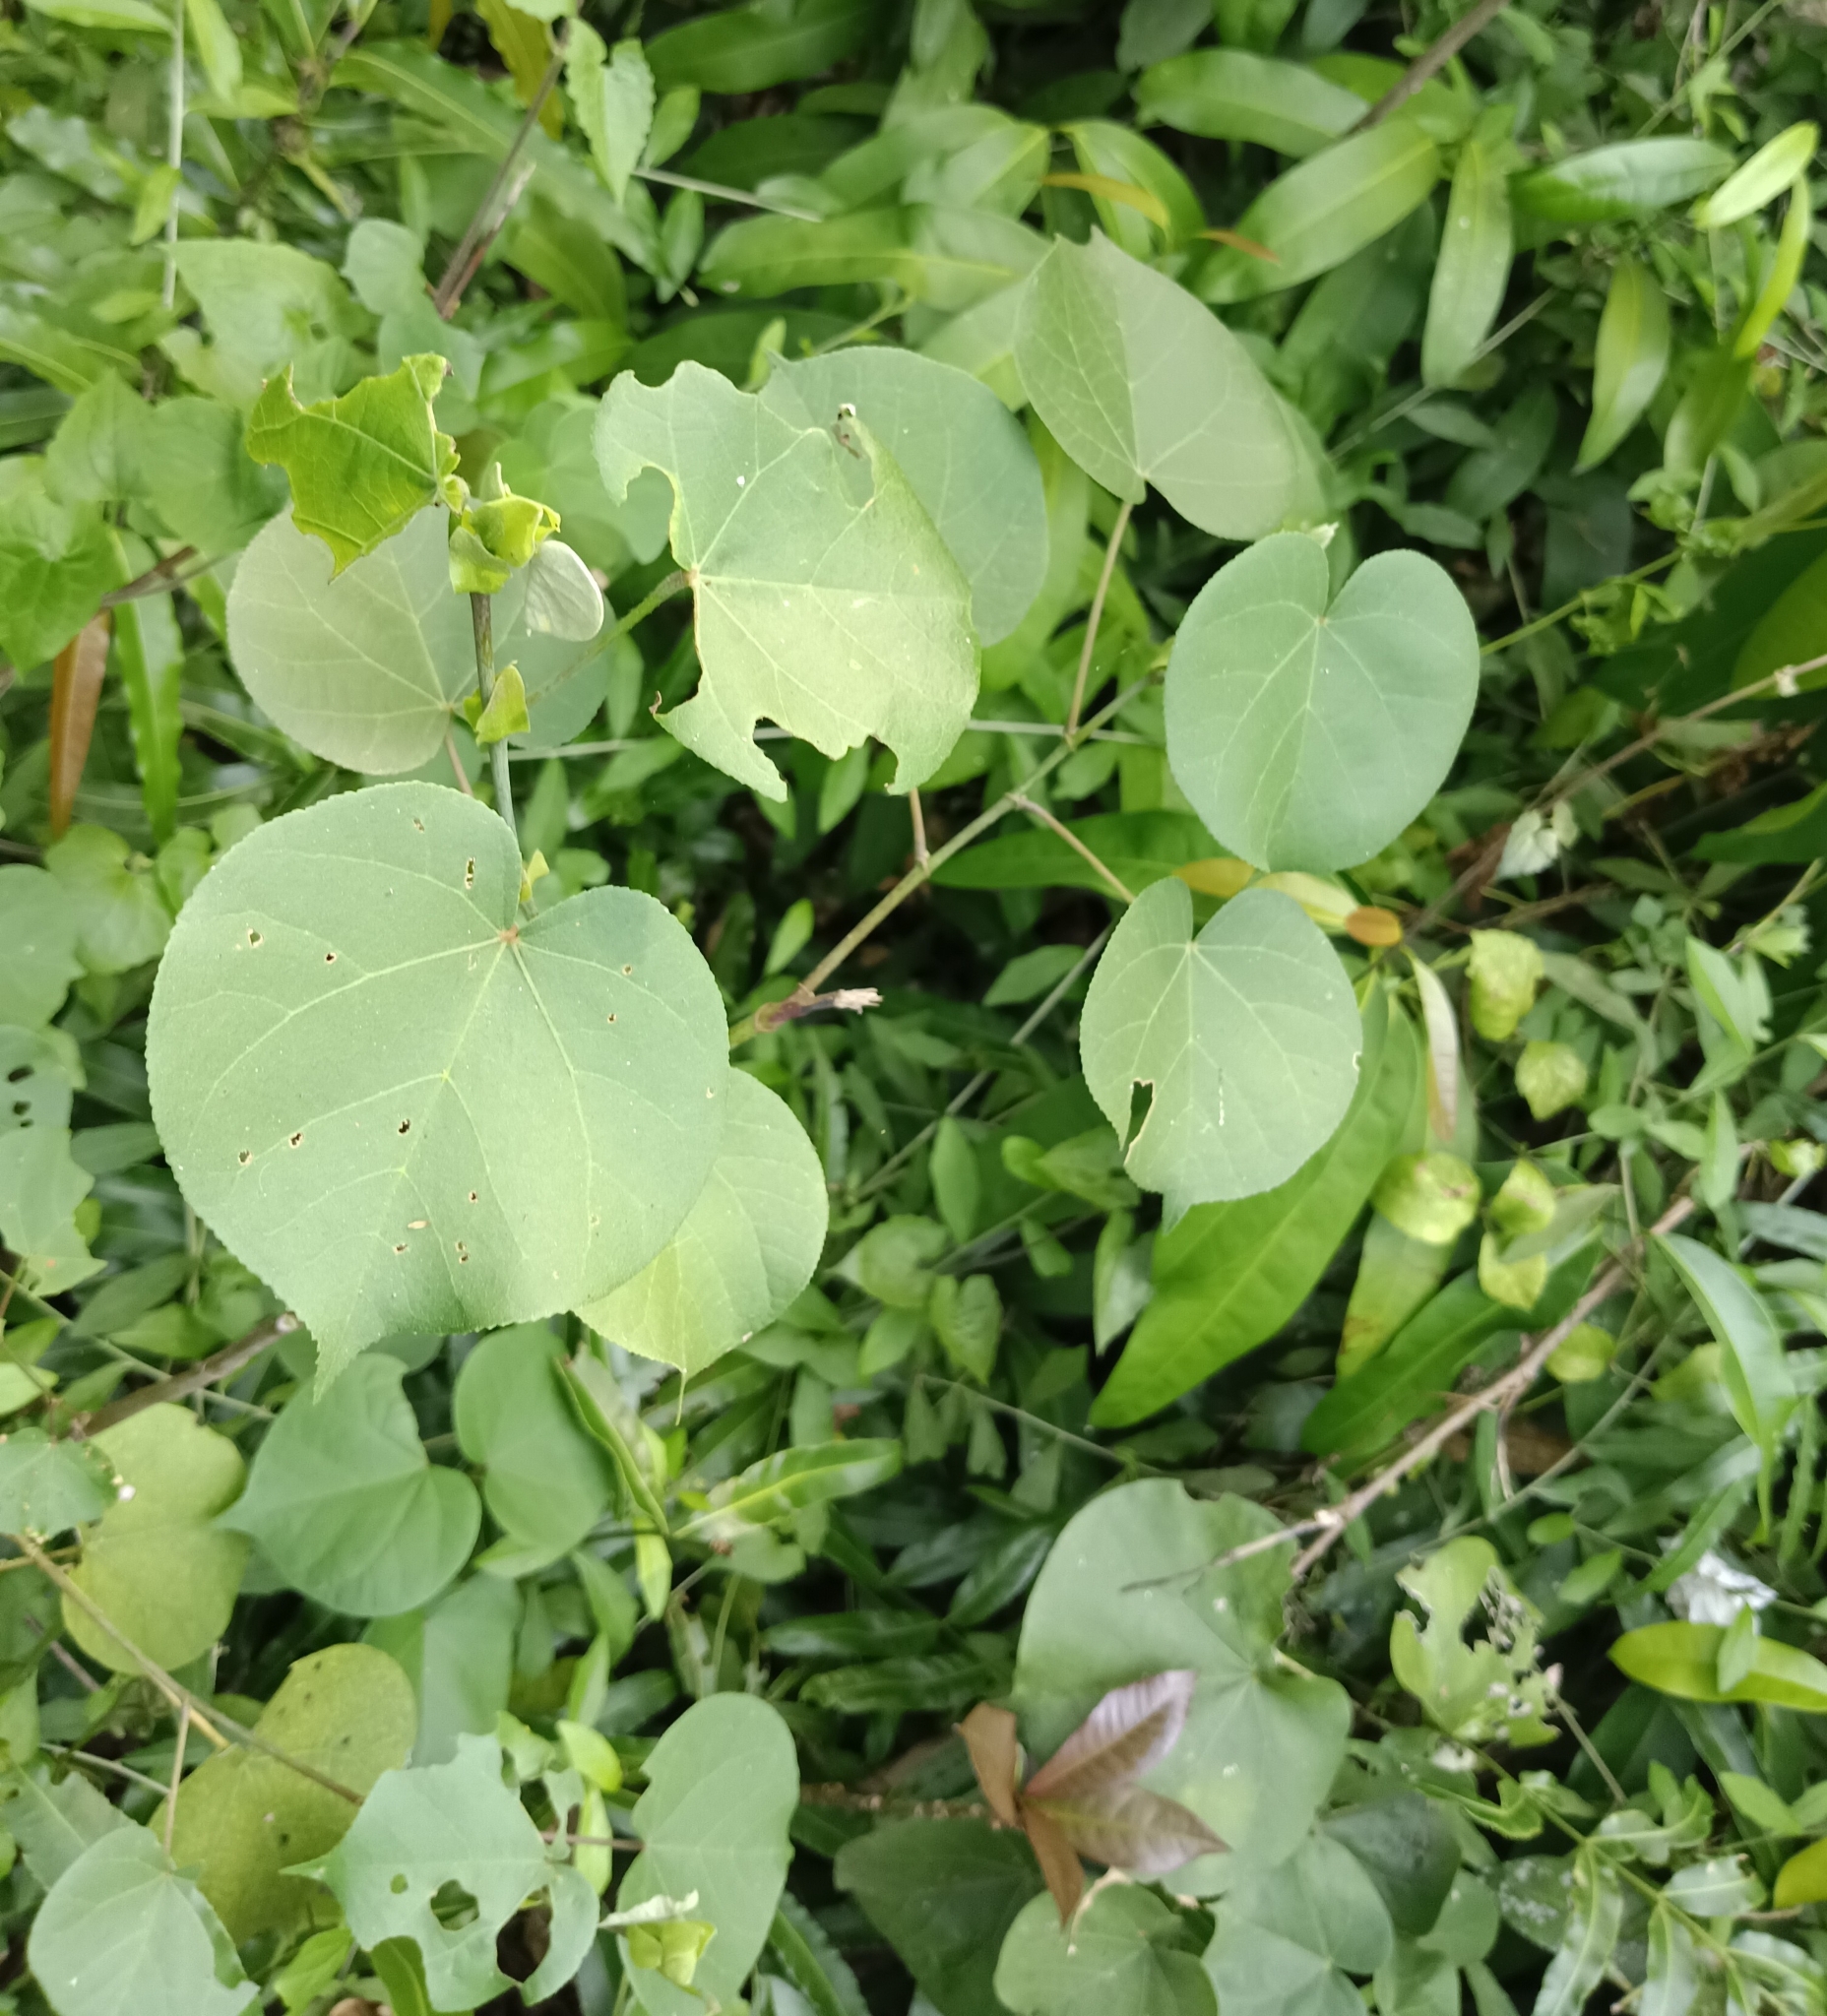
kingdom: Plantae
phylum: Tracheophyta
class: Magnoliopsida
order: Malvales
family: Malvaceae
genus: Talipariti
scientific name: Talipariti tiliaceum
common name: Sea hibiscus
